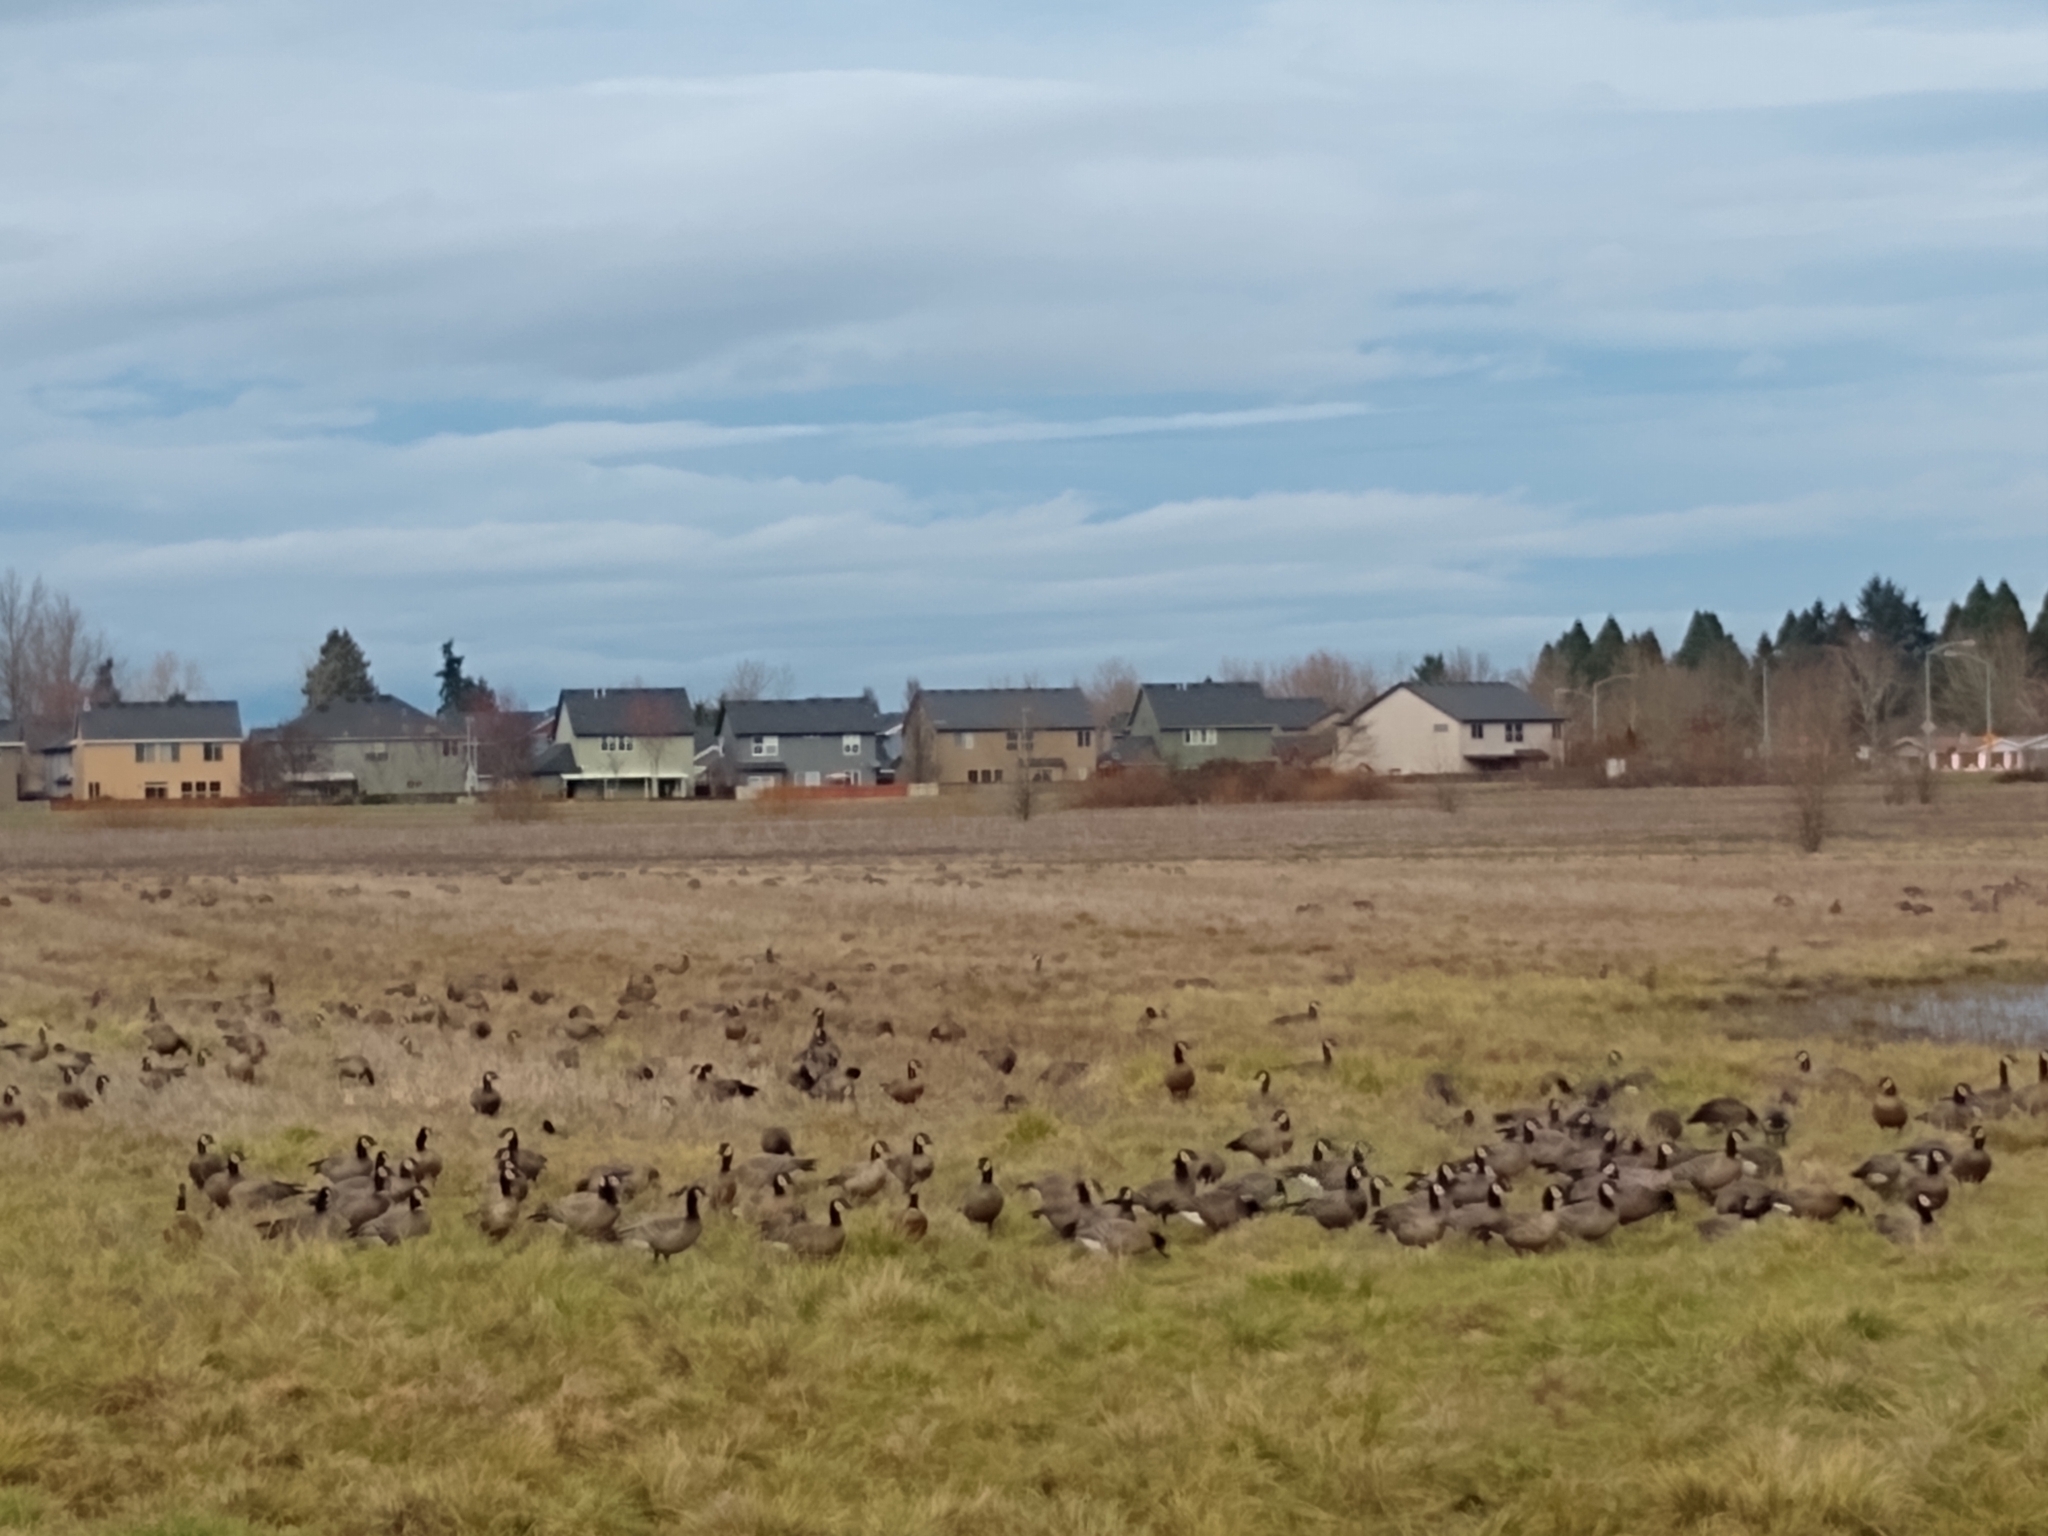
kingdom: Animalia
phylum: Chordata
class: Aves
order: Anseriformes
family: Anatidae
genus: Branta
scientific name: Branta hutchinsii
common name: Cackling goose
